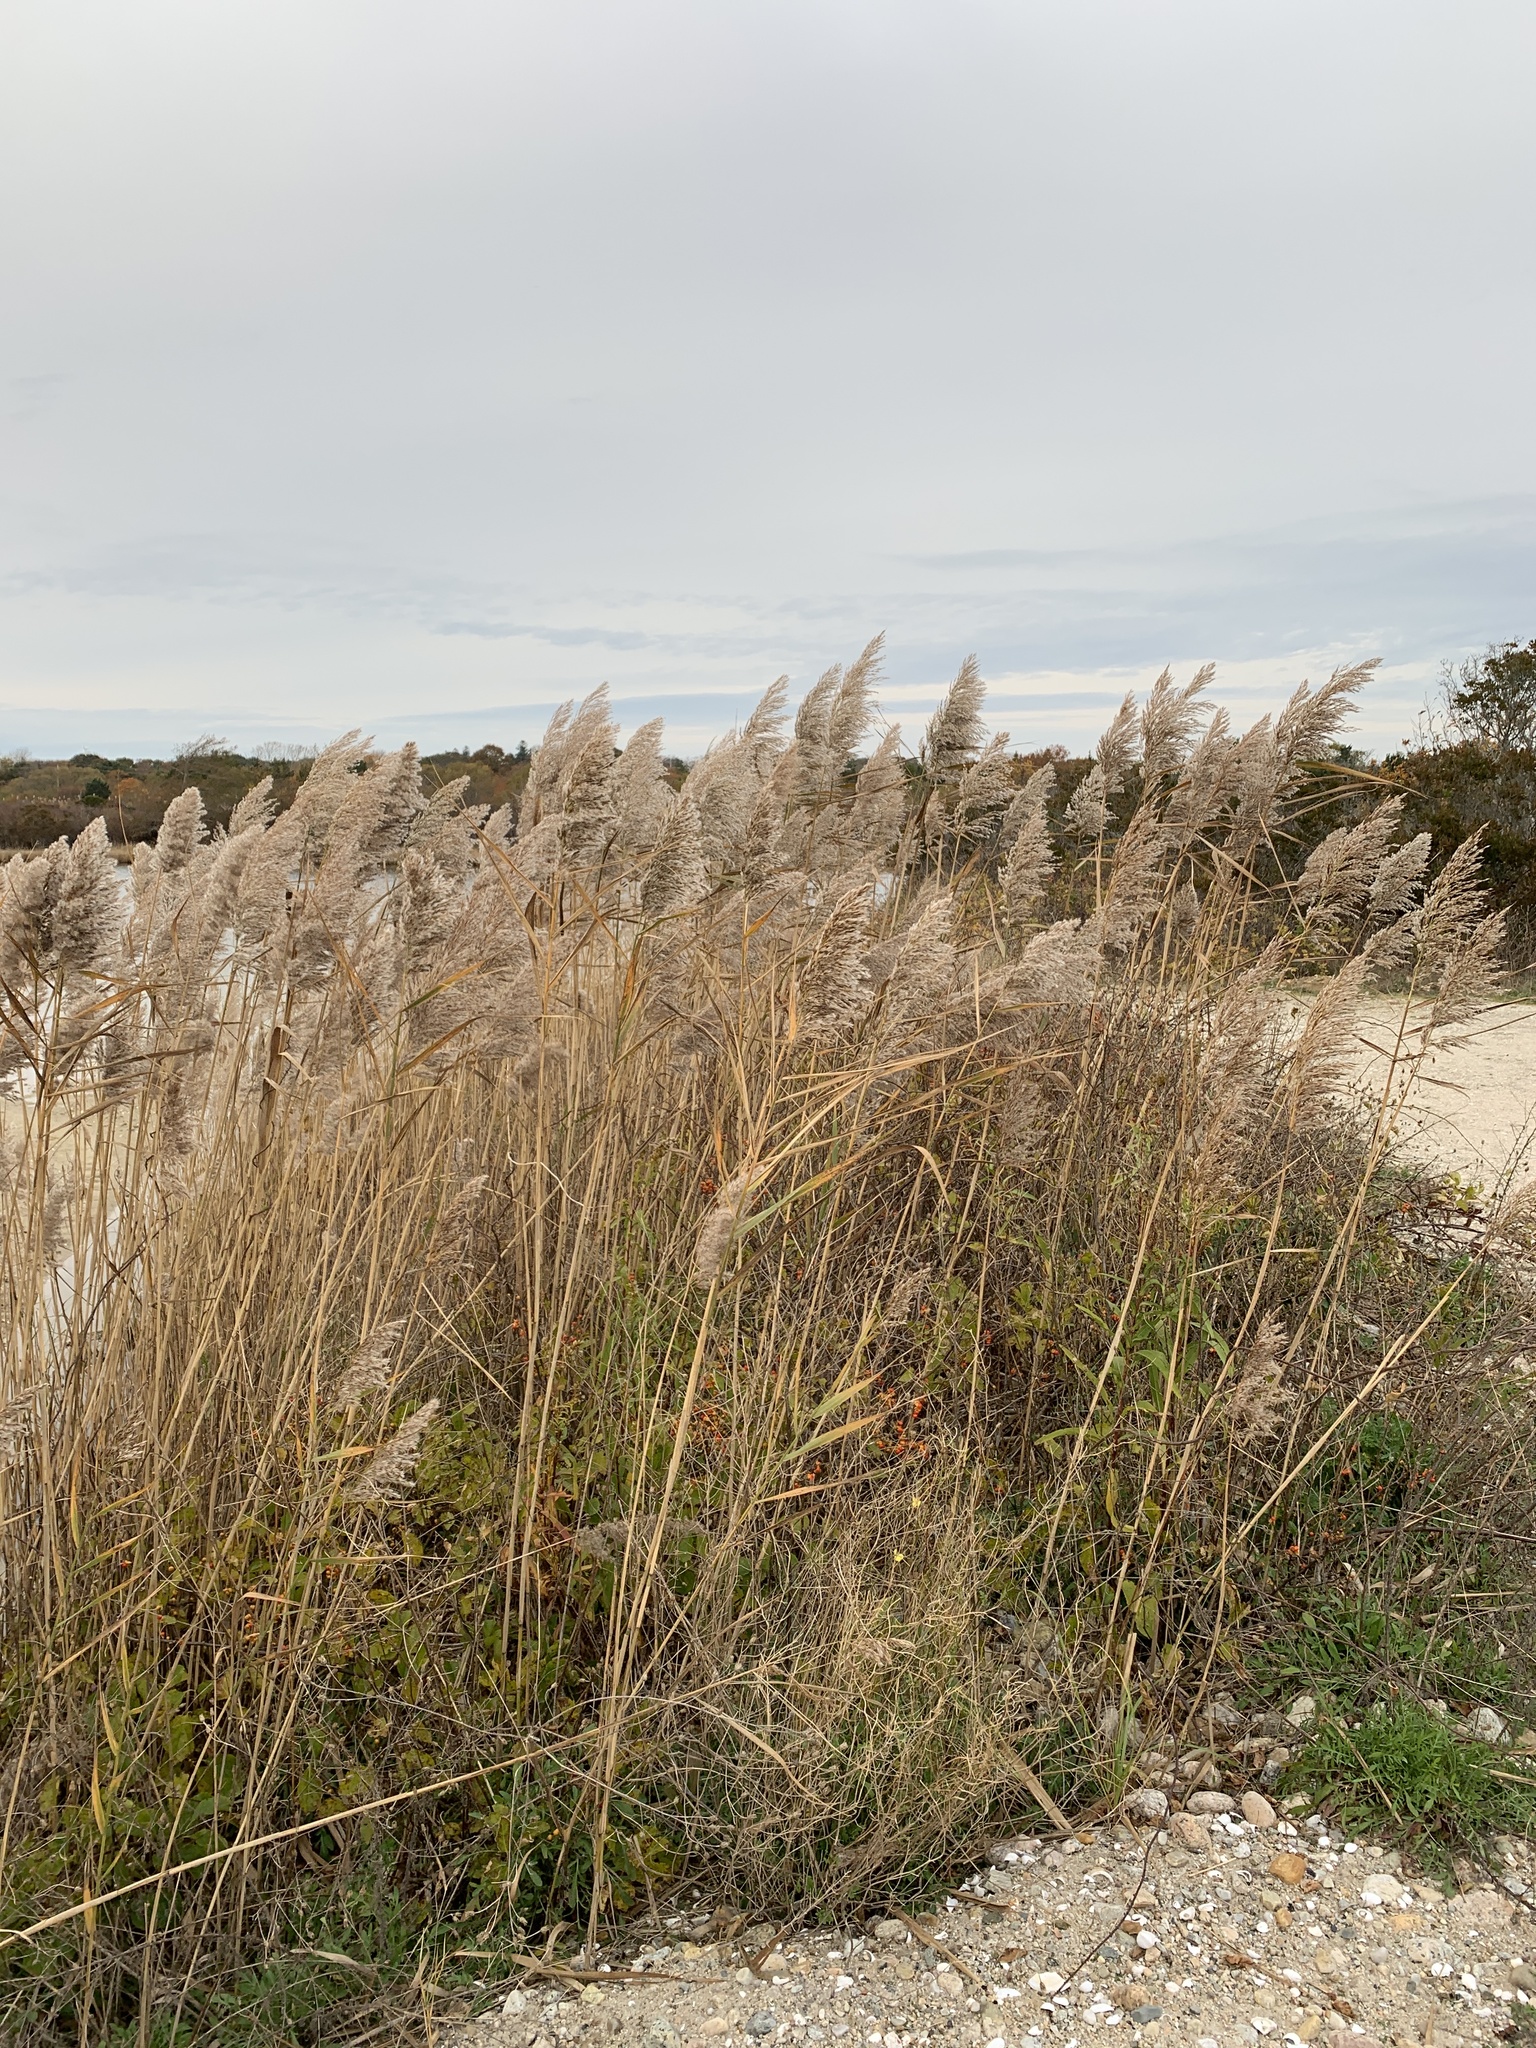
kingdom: Plantae
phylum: Tracheophyta
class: Liliopsida
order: Poales
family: Poaceae
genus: Phragmites
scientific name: Phragmites australis
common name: Common reed
